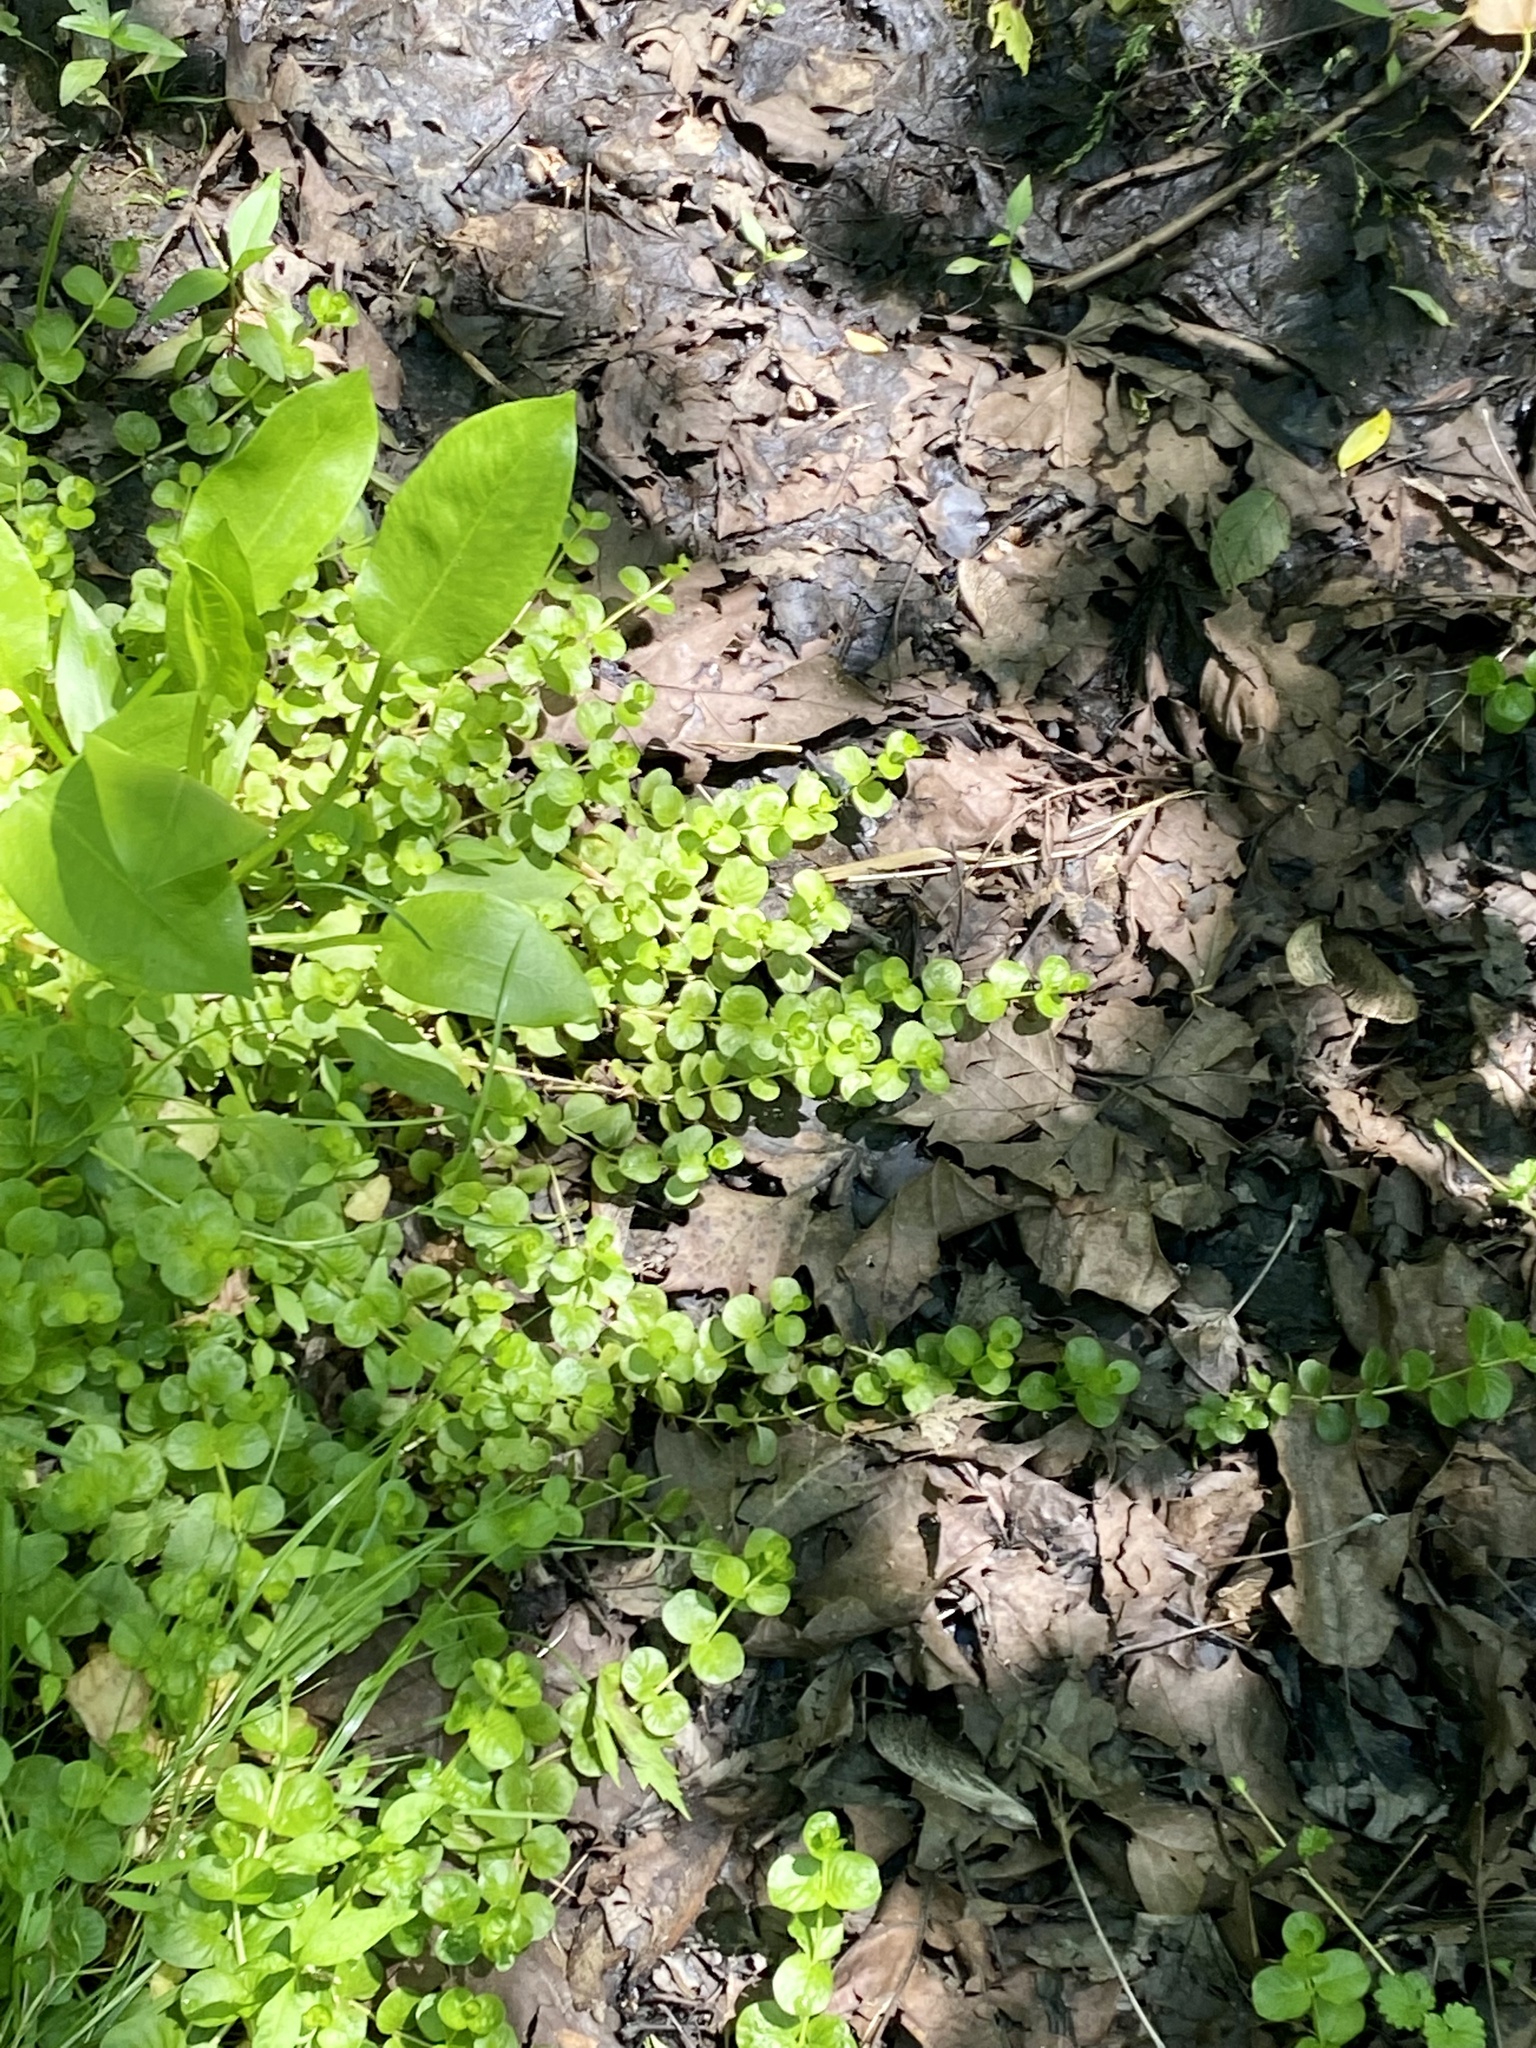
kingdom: Plantae
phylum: Tracheophyta
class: Magnoliopsida
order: Ericales
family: Primulaceae
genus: Lysimachia
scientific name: Lysimachia nummularia
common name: Moneywort
